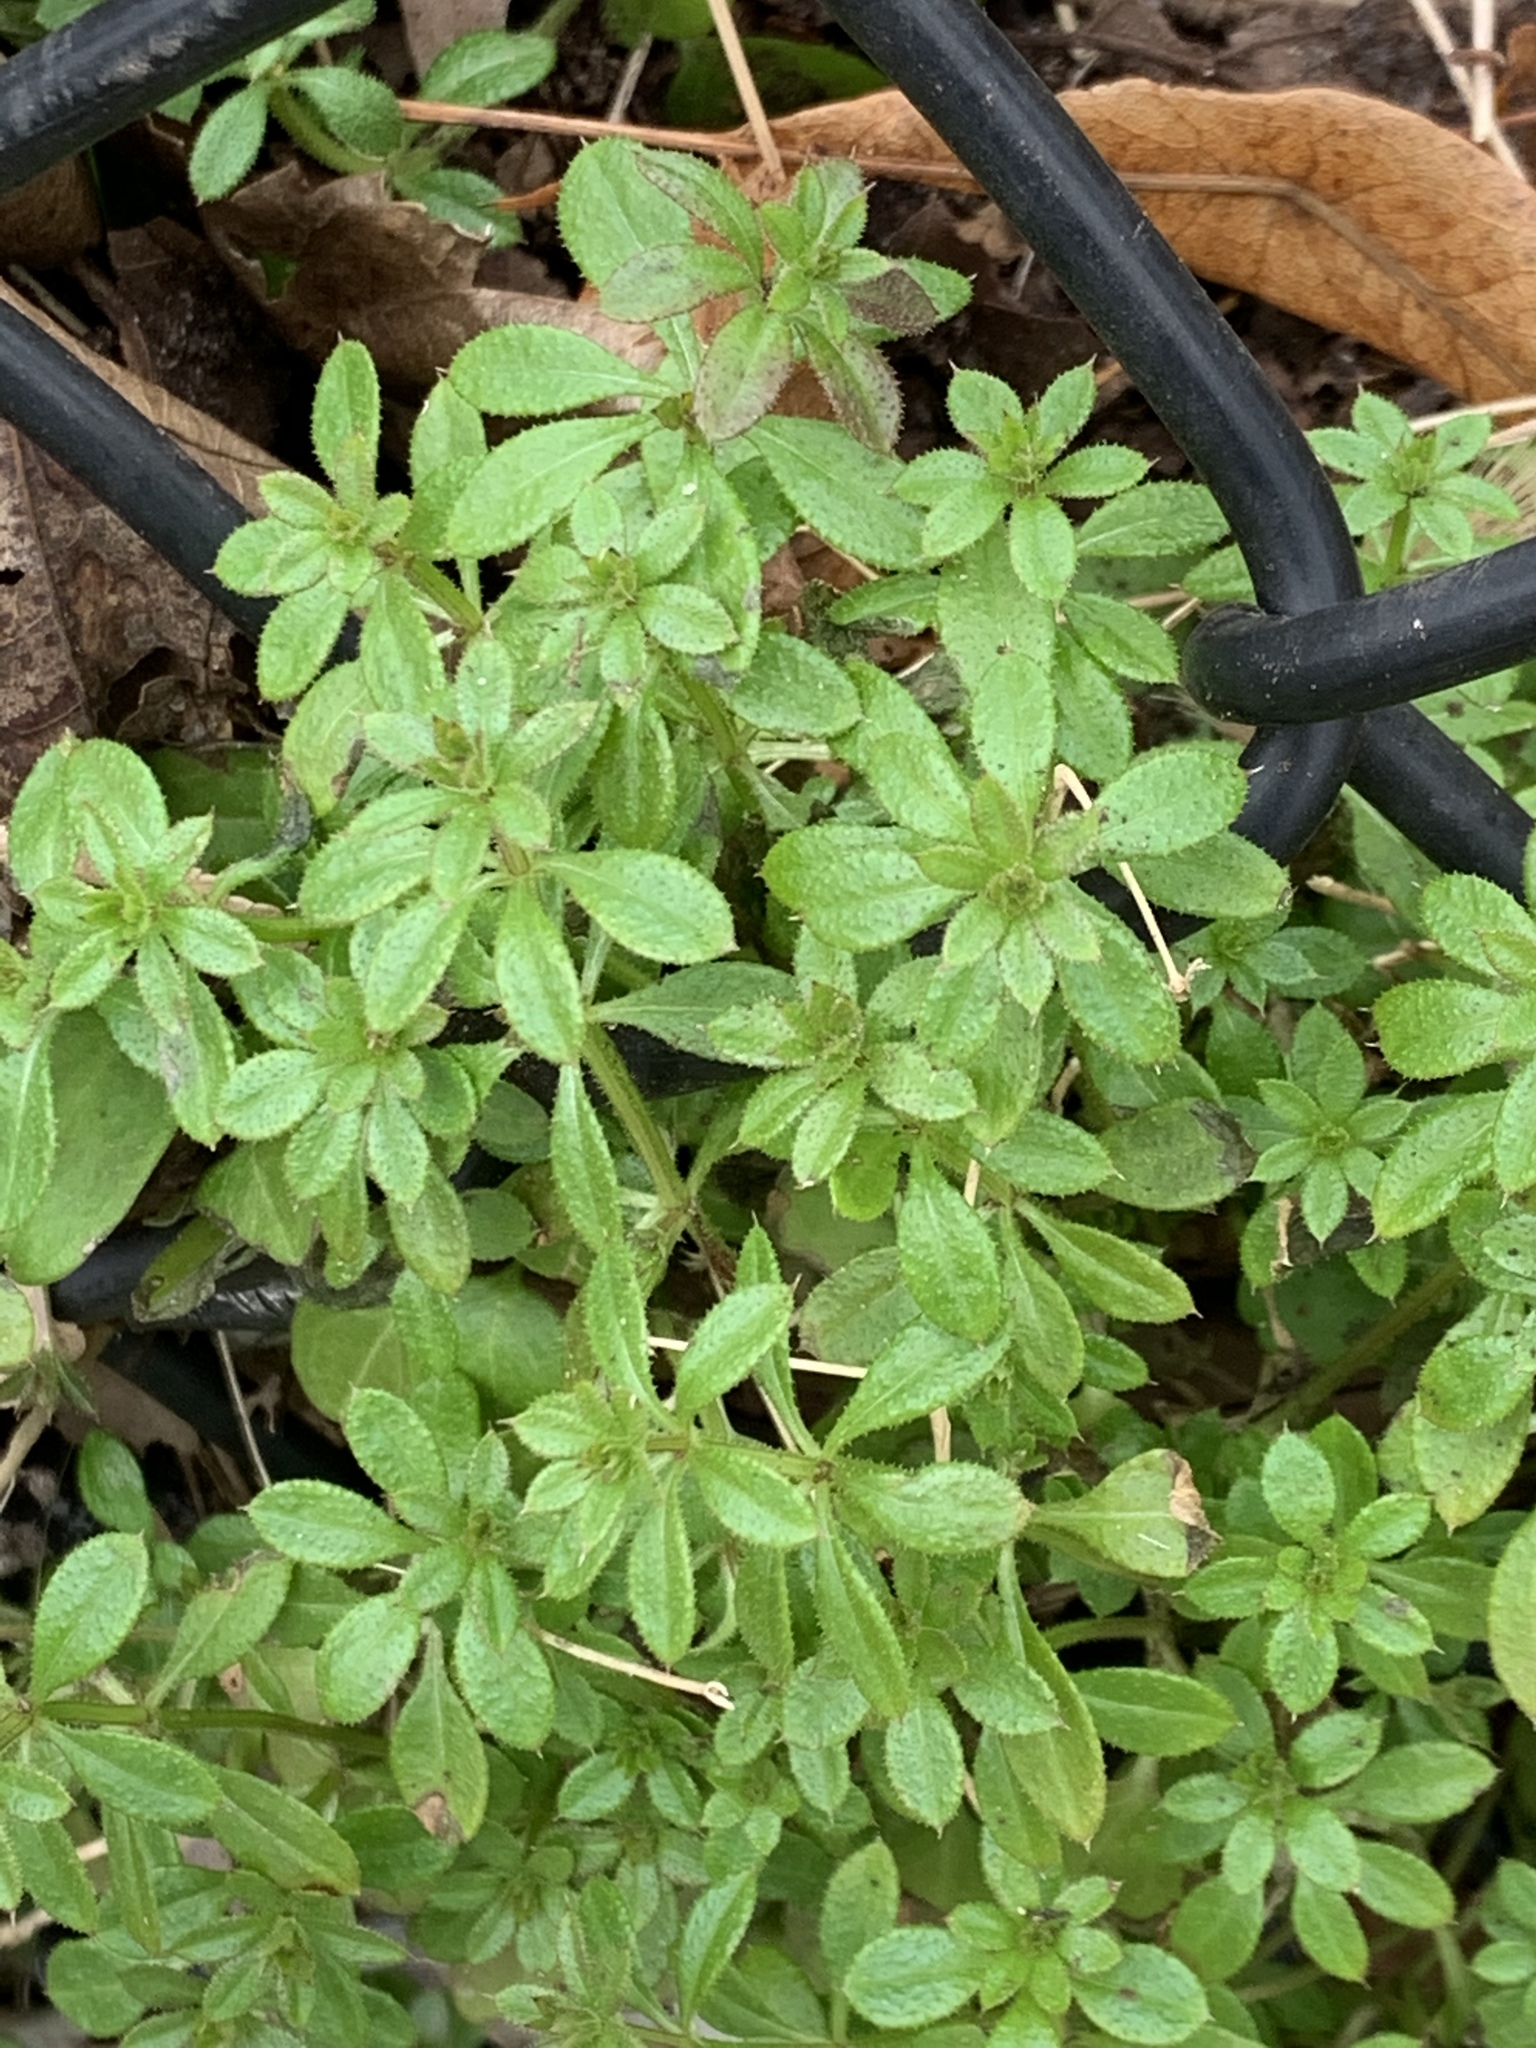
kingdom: Plantae
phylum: Tracheophyta
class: Magnoliopsida
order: Gentianales
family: Rubiaceae
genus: Galium
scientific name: Galium aparine
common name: Cleavers
